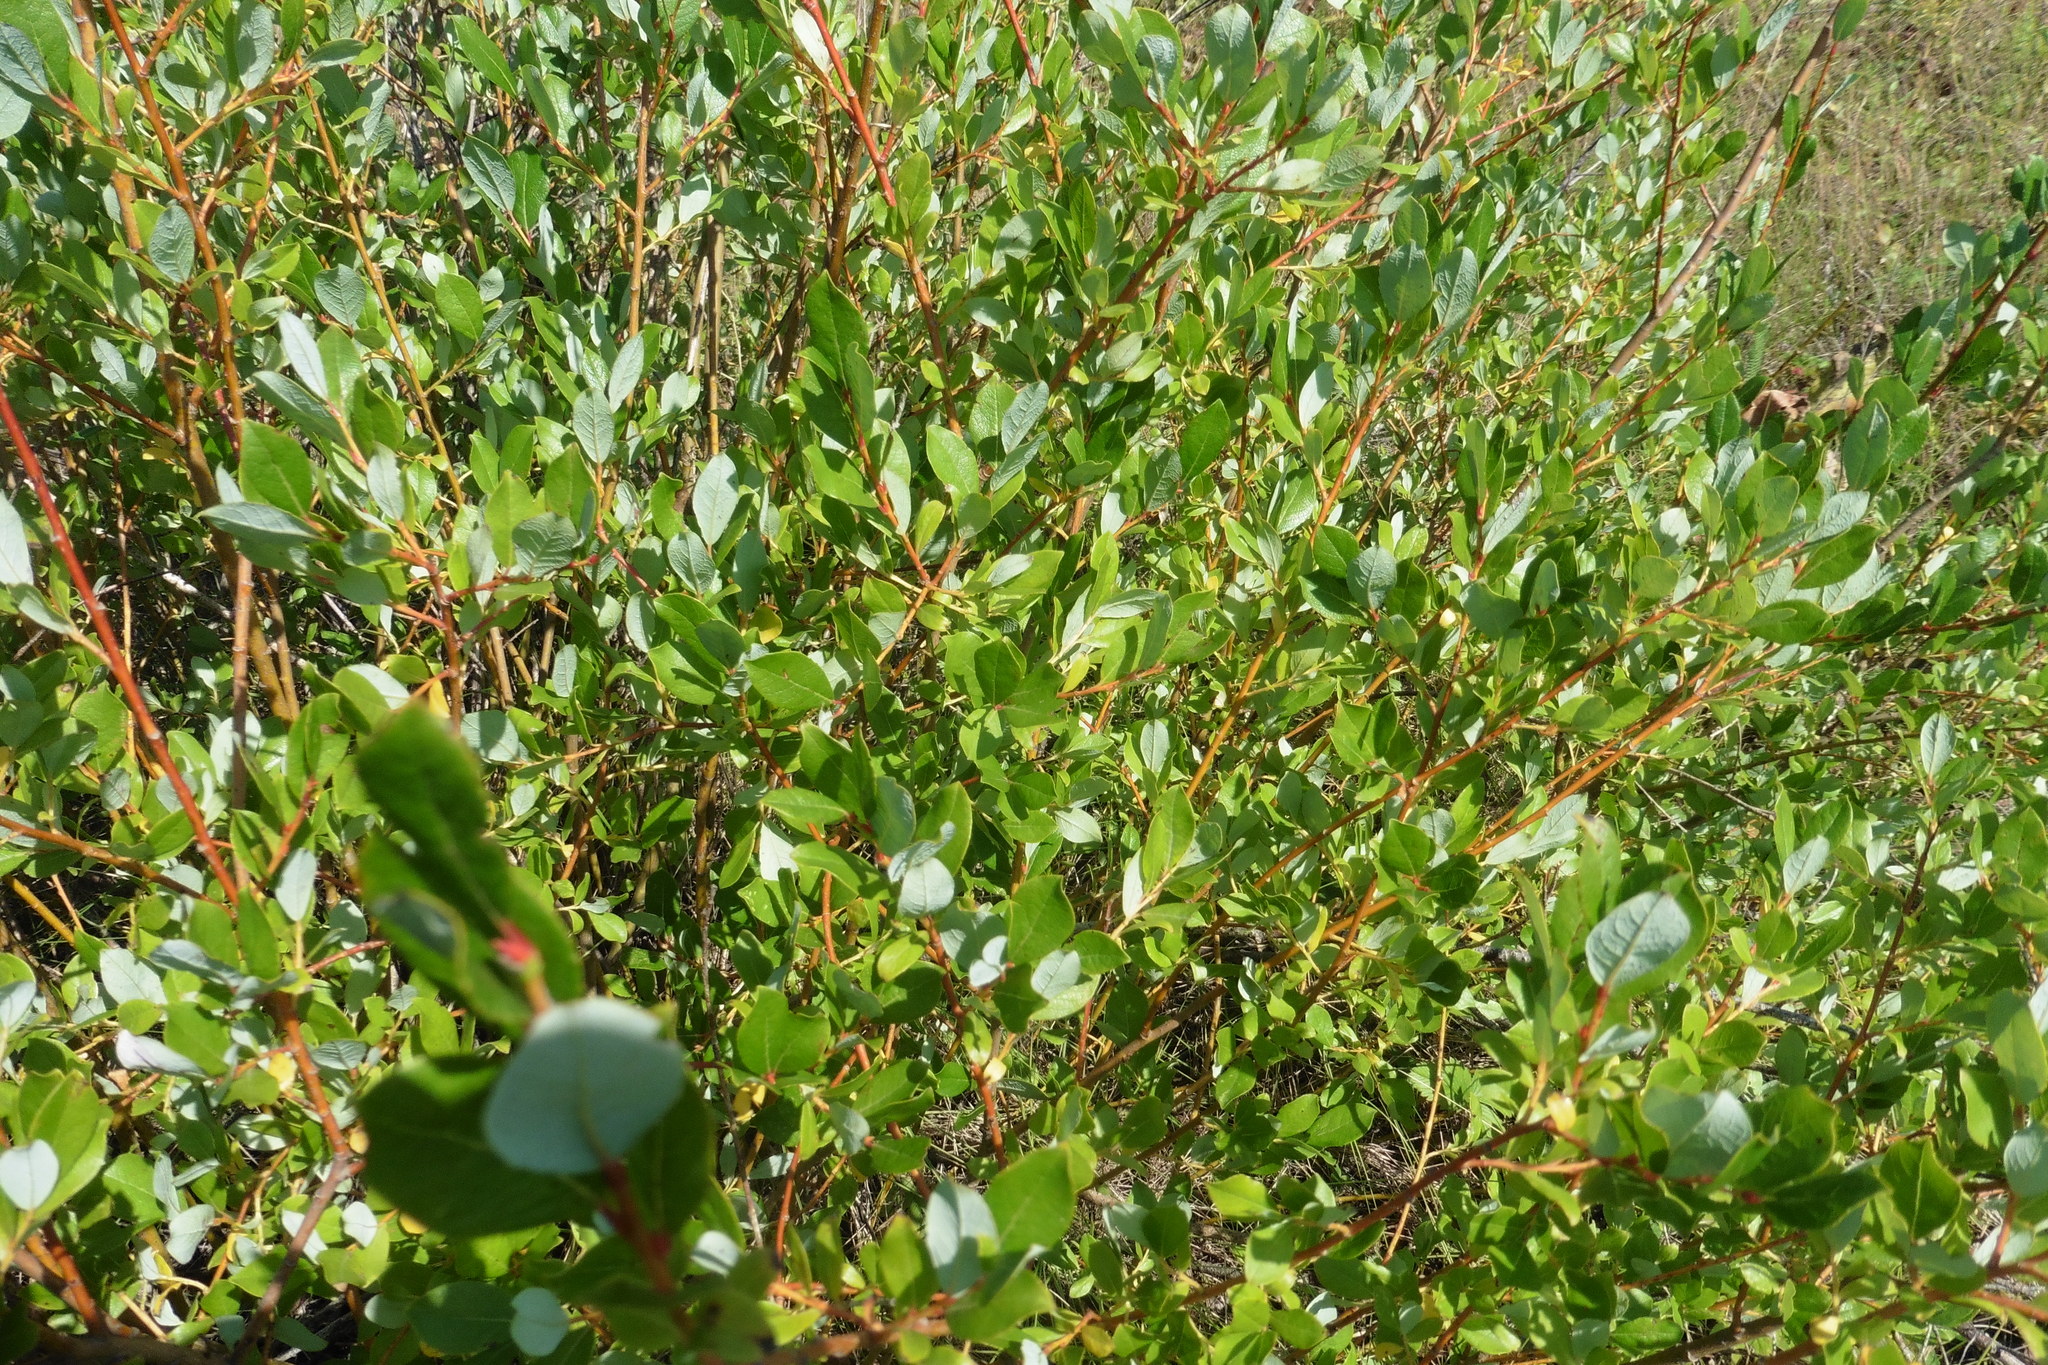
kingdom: Plantae
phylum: Tracheophyta
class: Magnoliopsida
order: Malpighiales
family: Salicaceae
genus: Salix
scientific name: Salix starkeana
